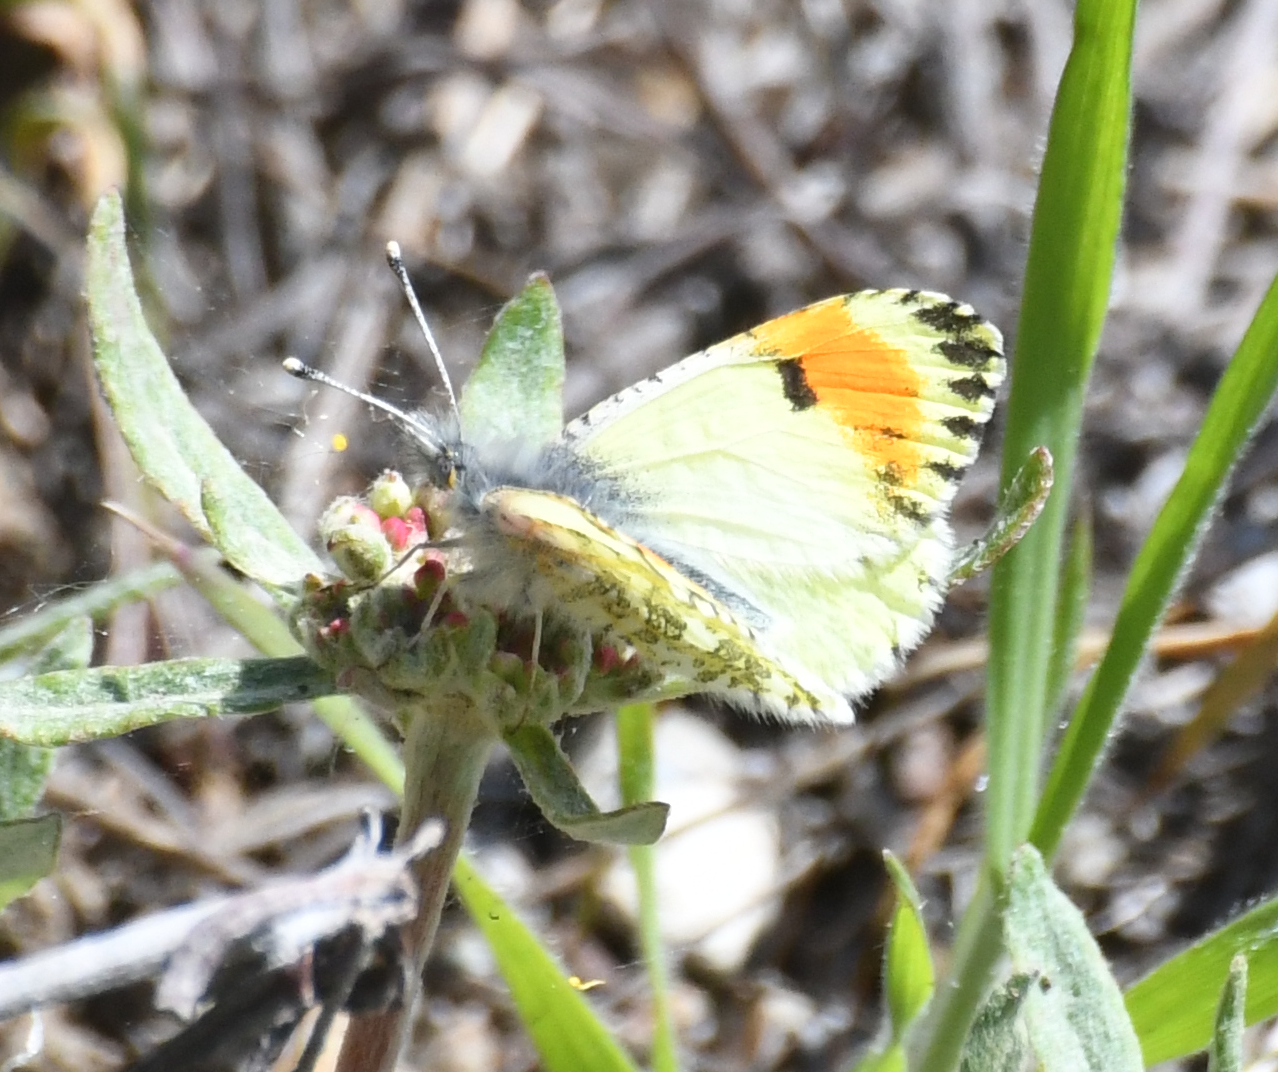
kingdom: Animalia
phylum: Arthropoda
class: Insecta
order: Lepidoptera
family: Pieridae
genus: Anthocharis
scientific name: Anthocharis julia
